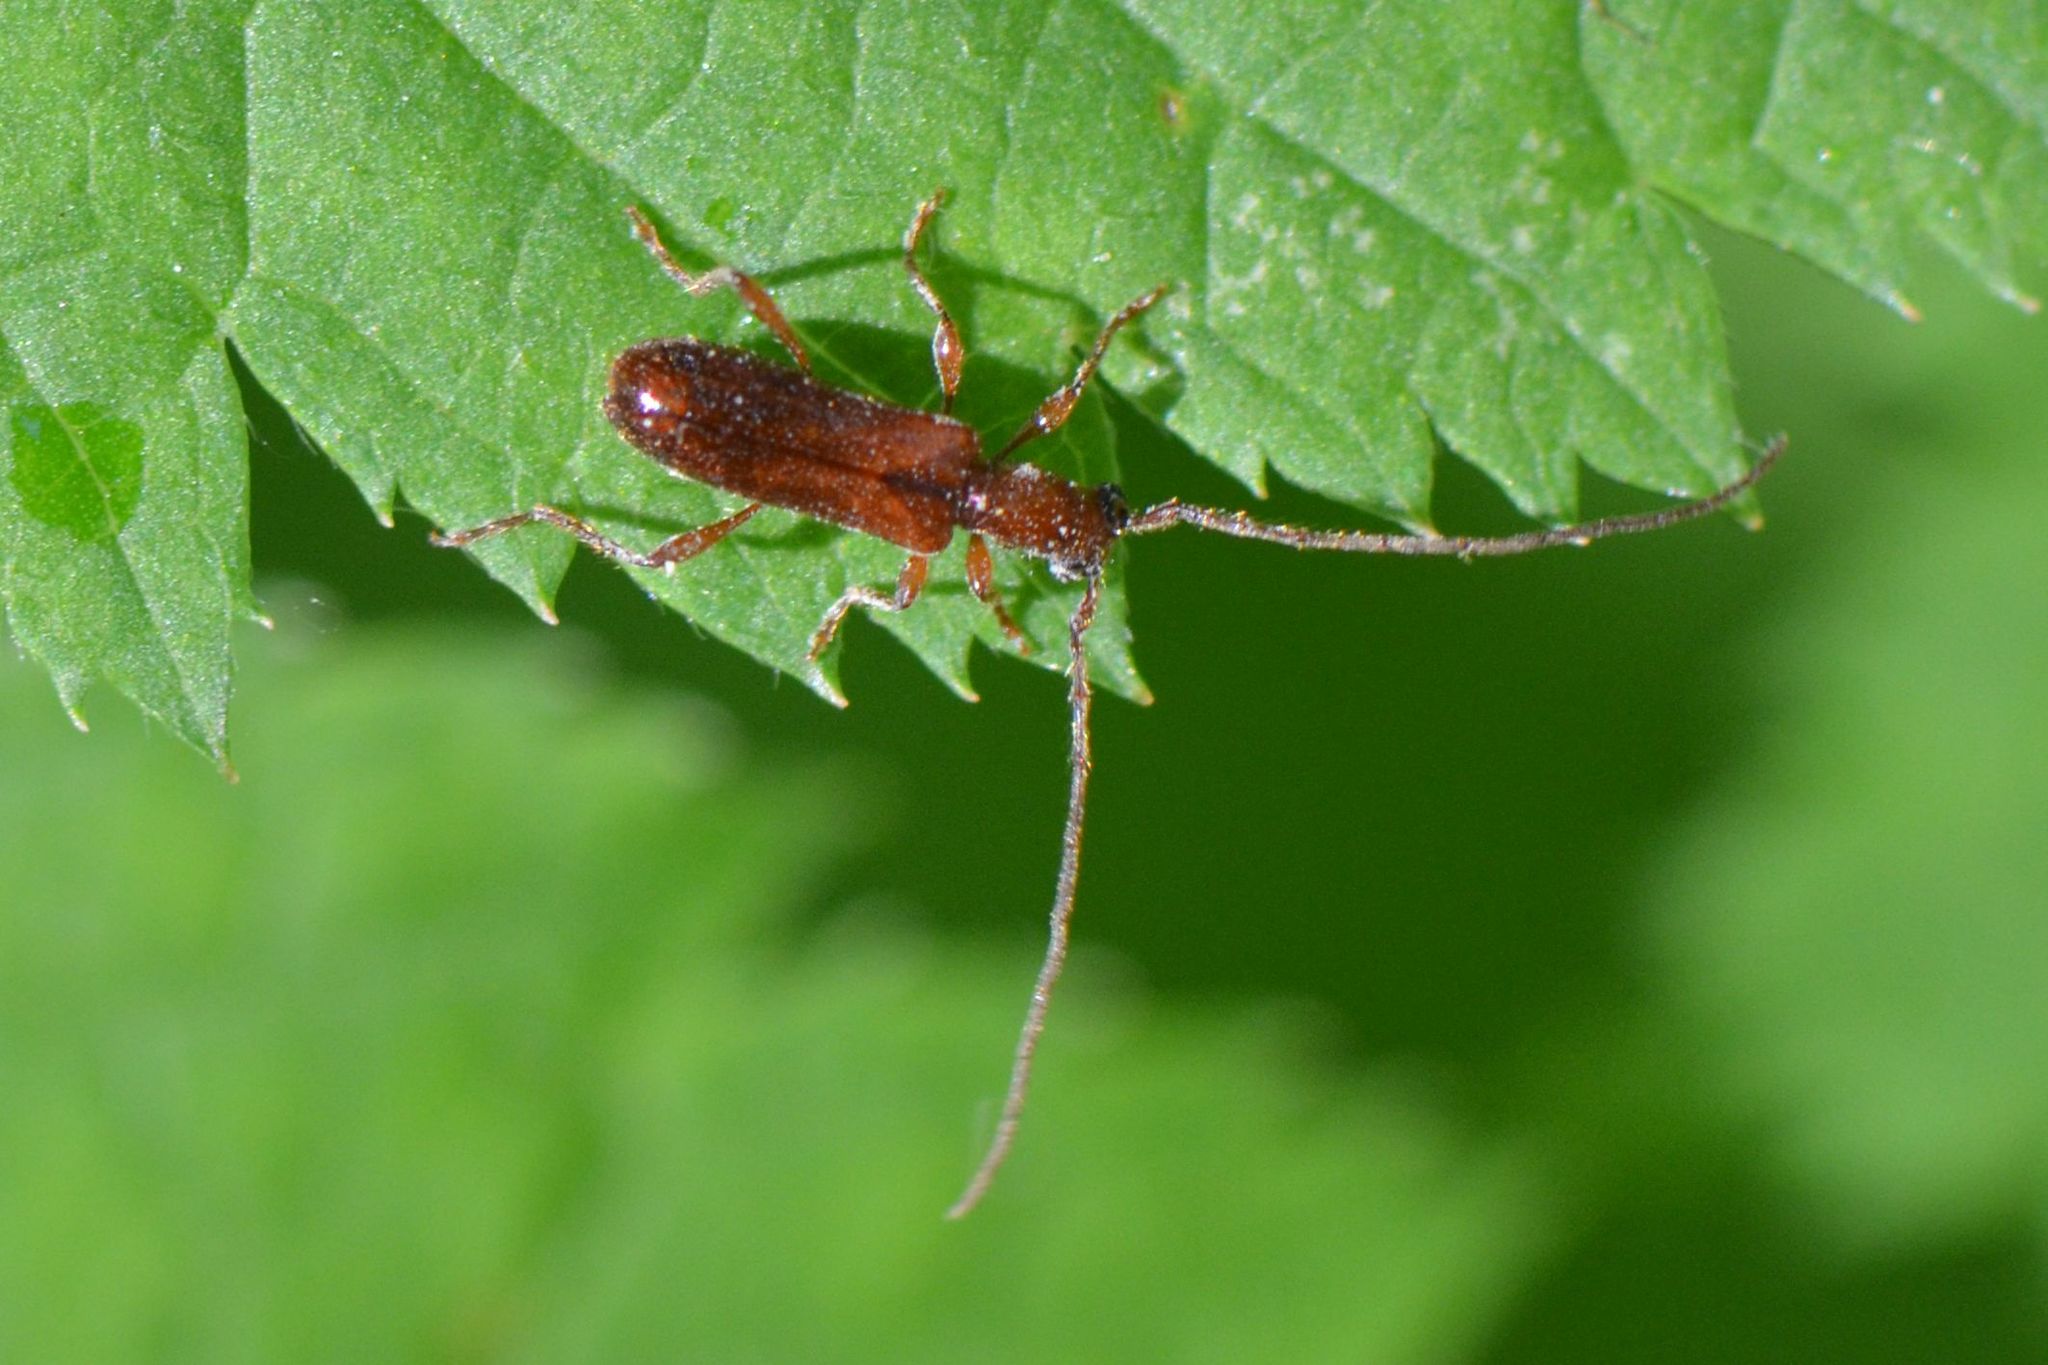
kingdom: Animalia
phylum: Arthropoda
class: Insecta
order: Coleoptera
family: Cerambycidae
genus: Obrium
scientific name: Obrium brunneum
